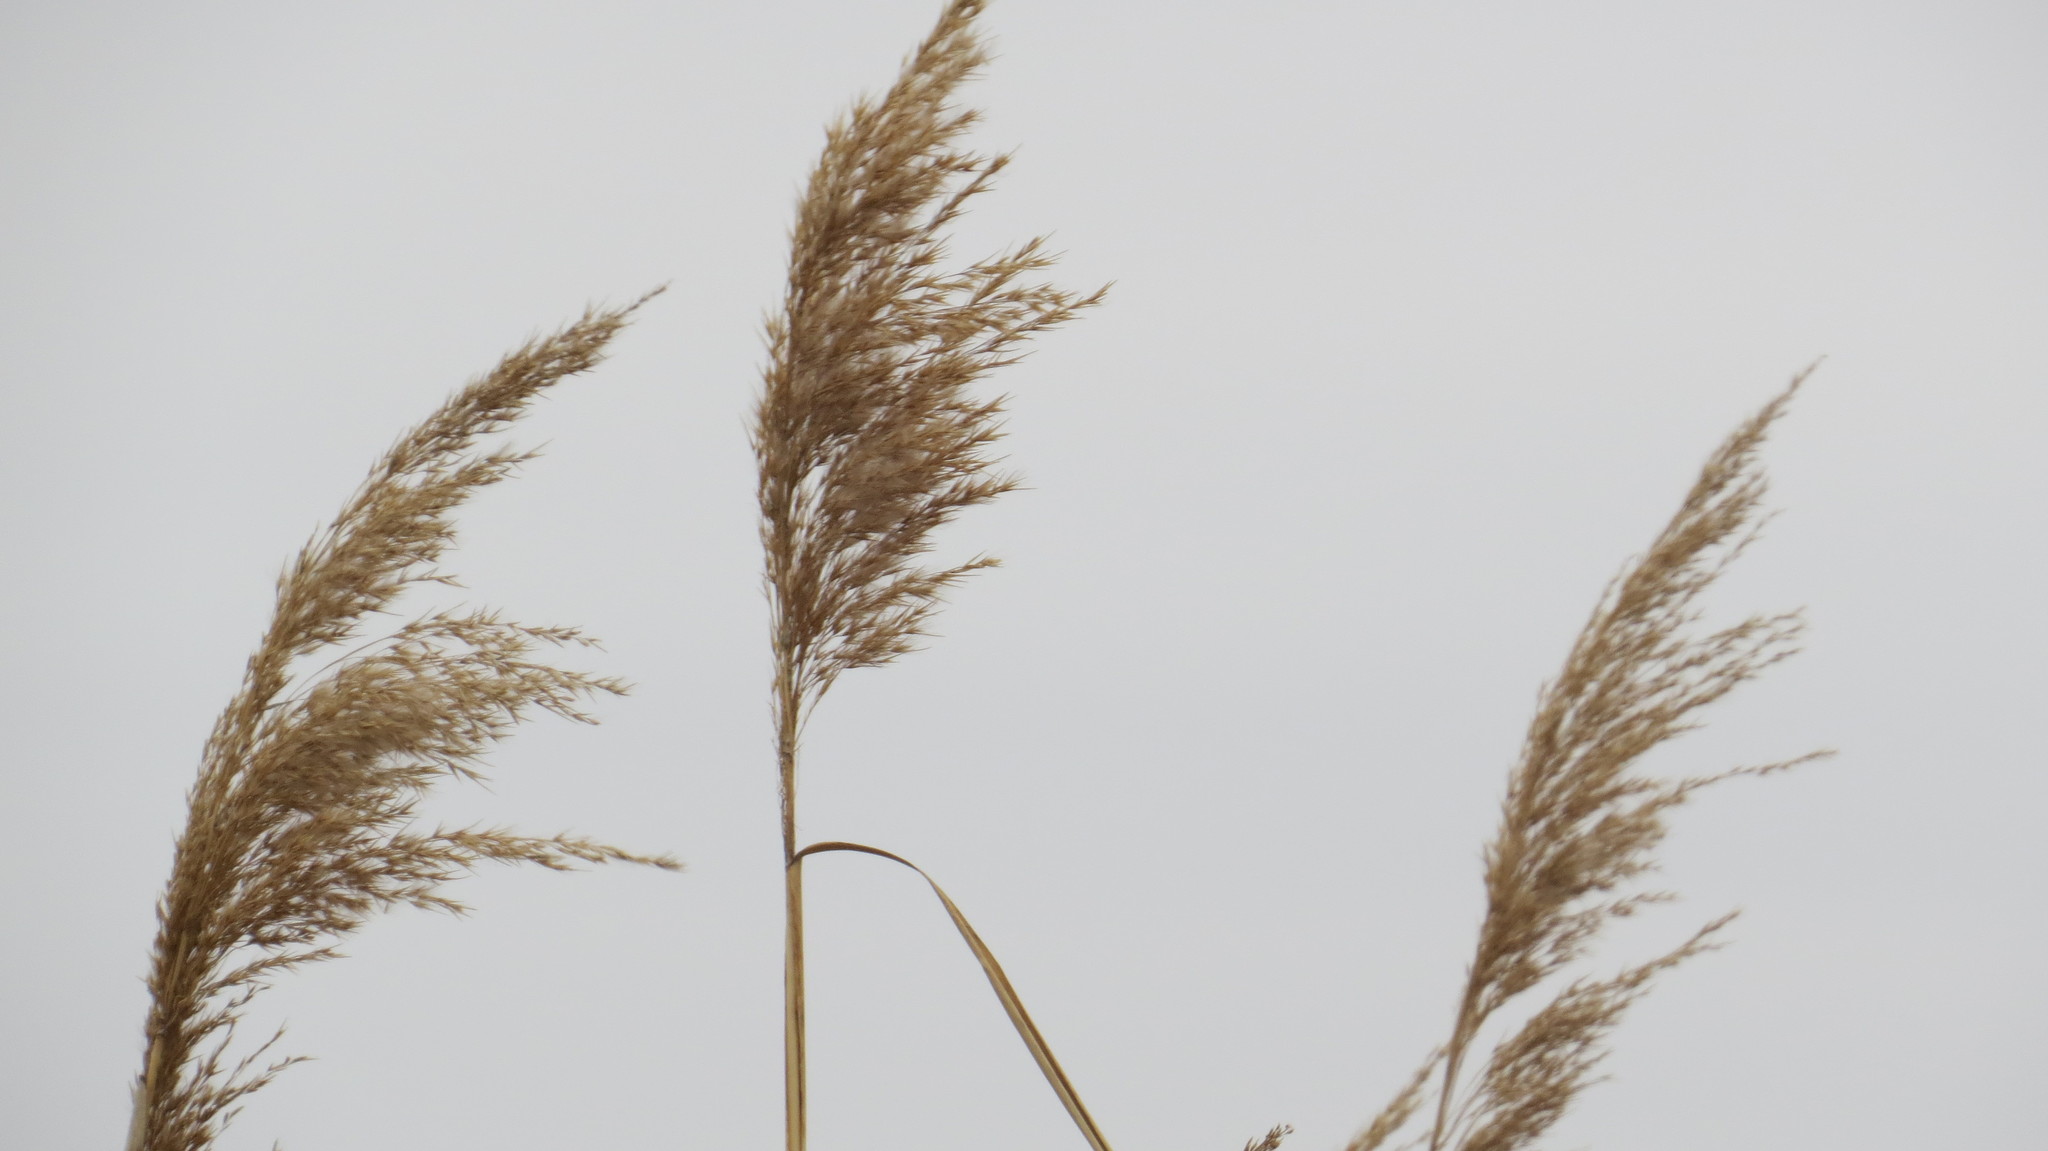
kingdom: Plantae
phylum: Tracheophyta
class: Liliopsida
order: Poales
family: Poaceae
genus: Phragmites
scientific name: Phragmites australis
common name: Common reed
